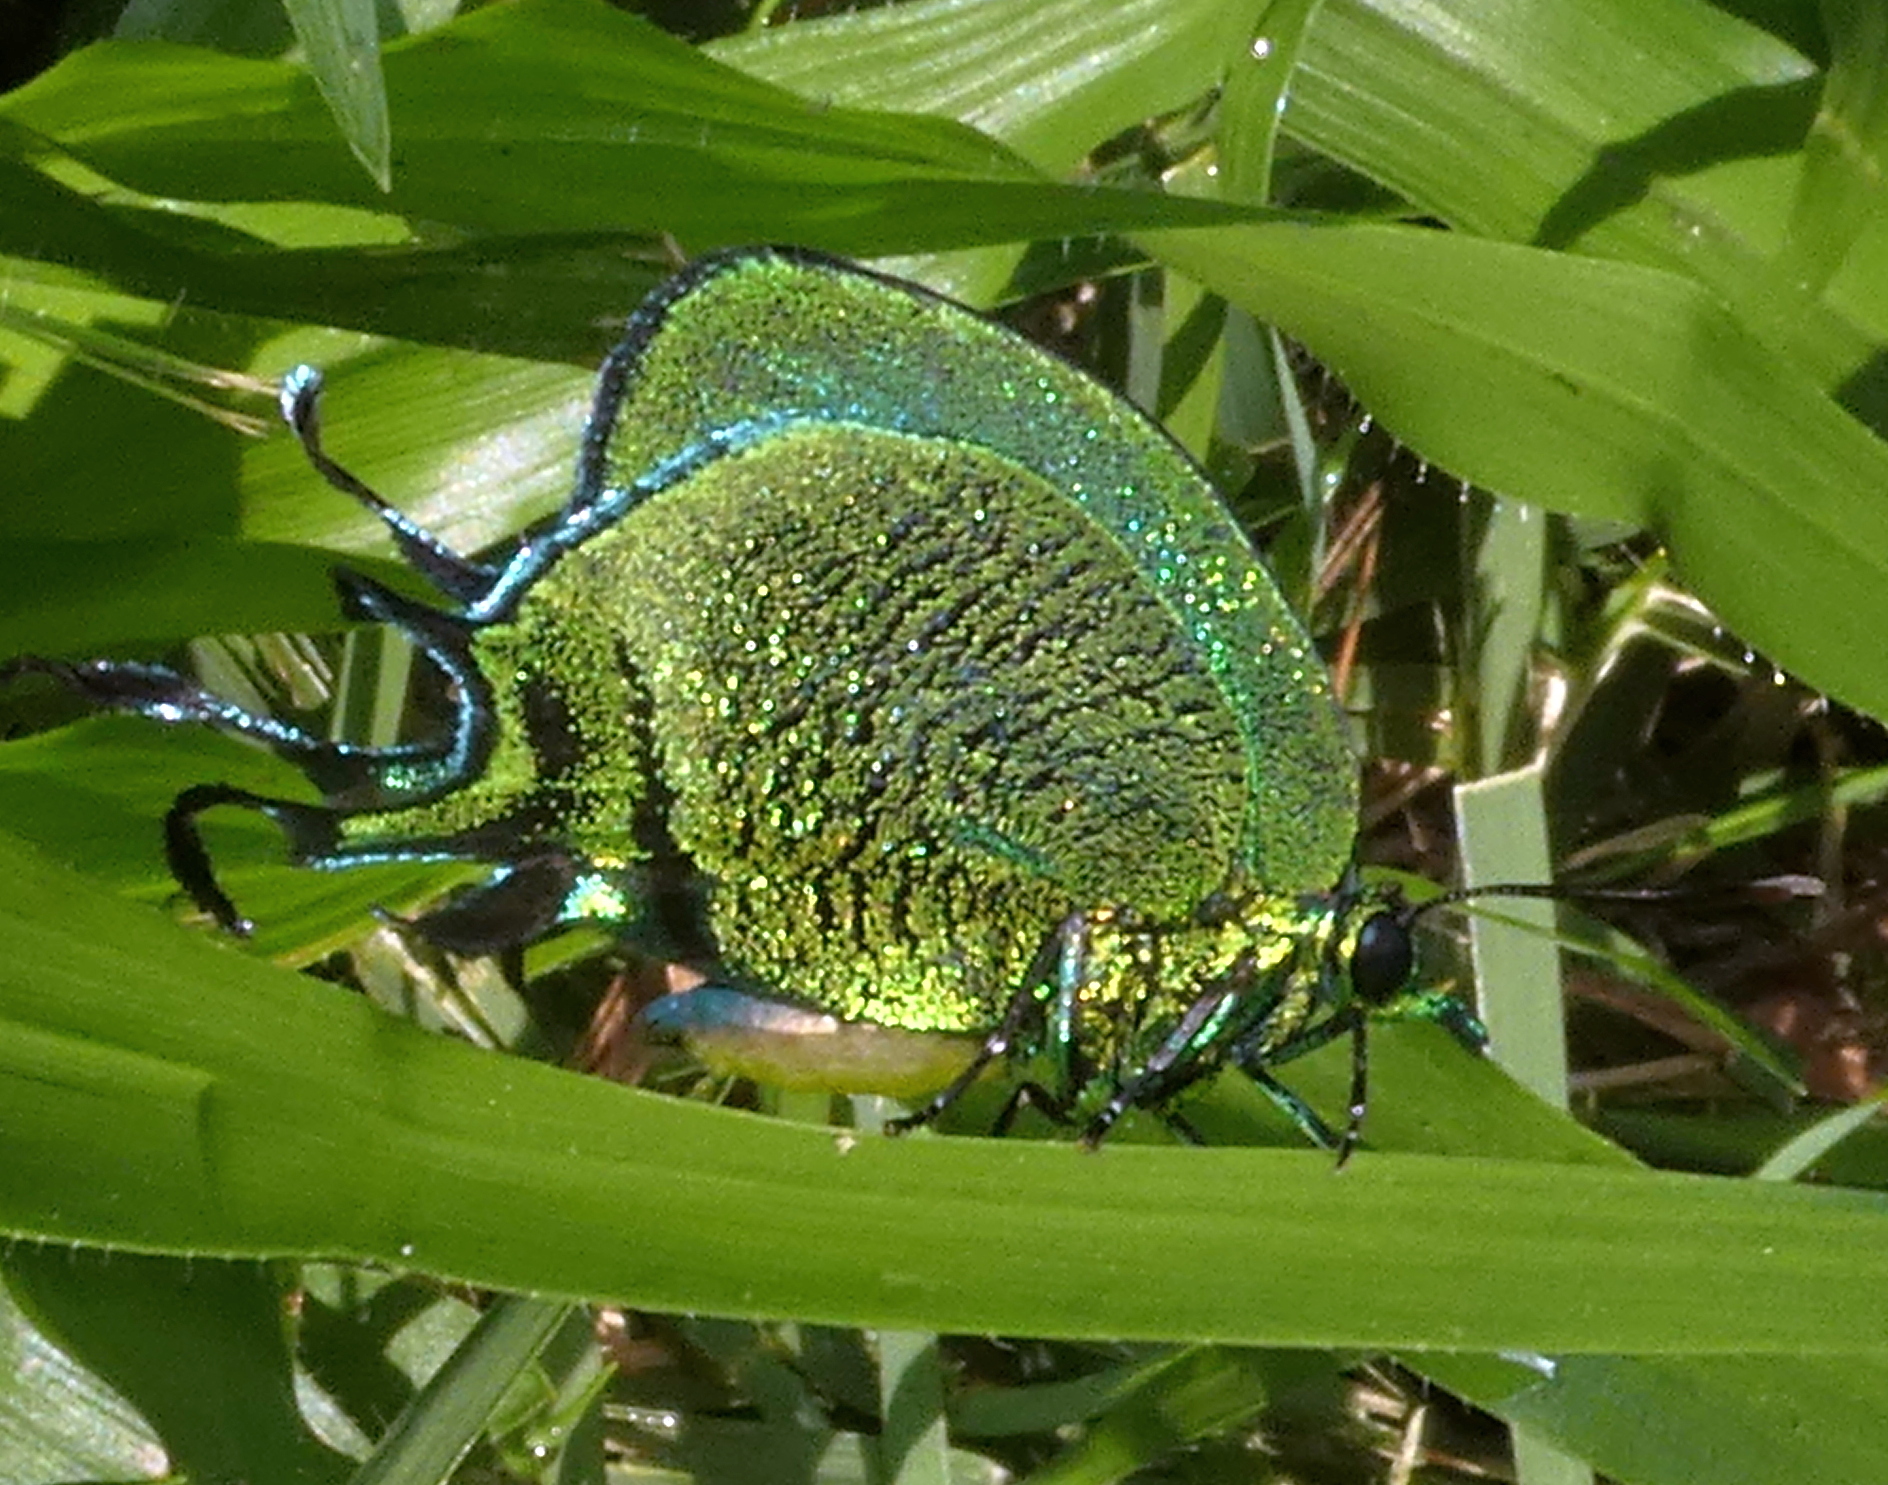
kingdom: Animalia
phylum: Arthropoda
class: Insecta
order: Lepidoptera
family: Lycaenidae
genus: Arcas
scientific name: Arcas imperialis
